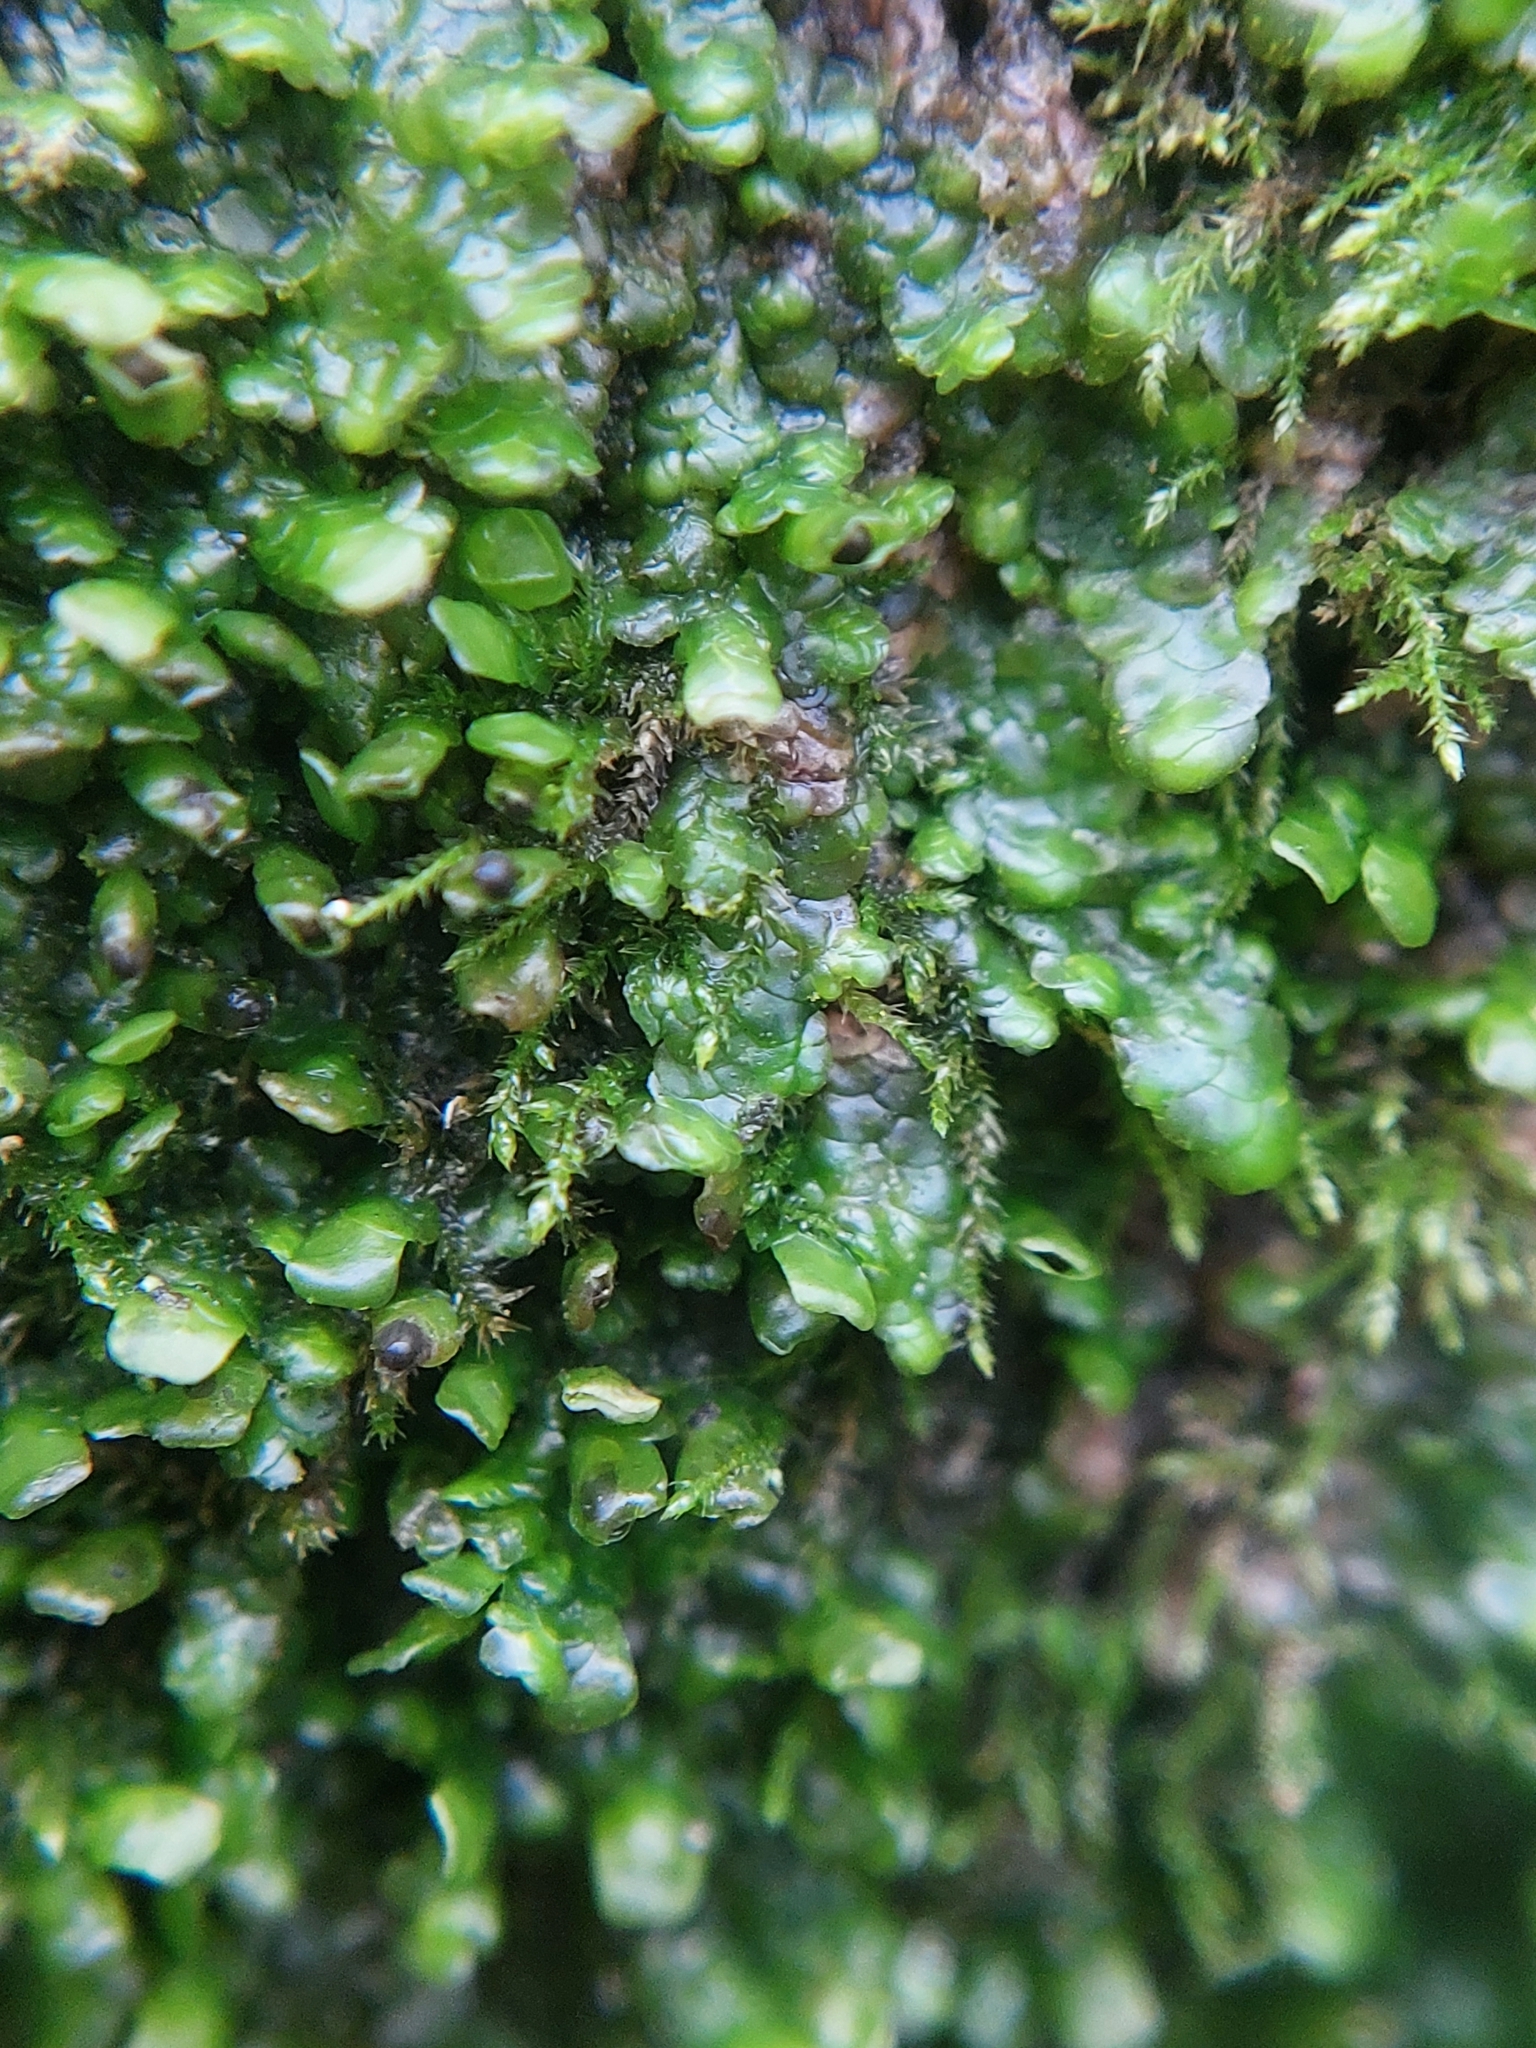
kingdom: Plantae
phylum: Marchantiophyta
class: Jungermanniopsida
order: Porellales
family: Radulaceae
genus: Radula
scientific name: Radula complanata
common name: Flat-leaved scalewort
